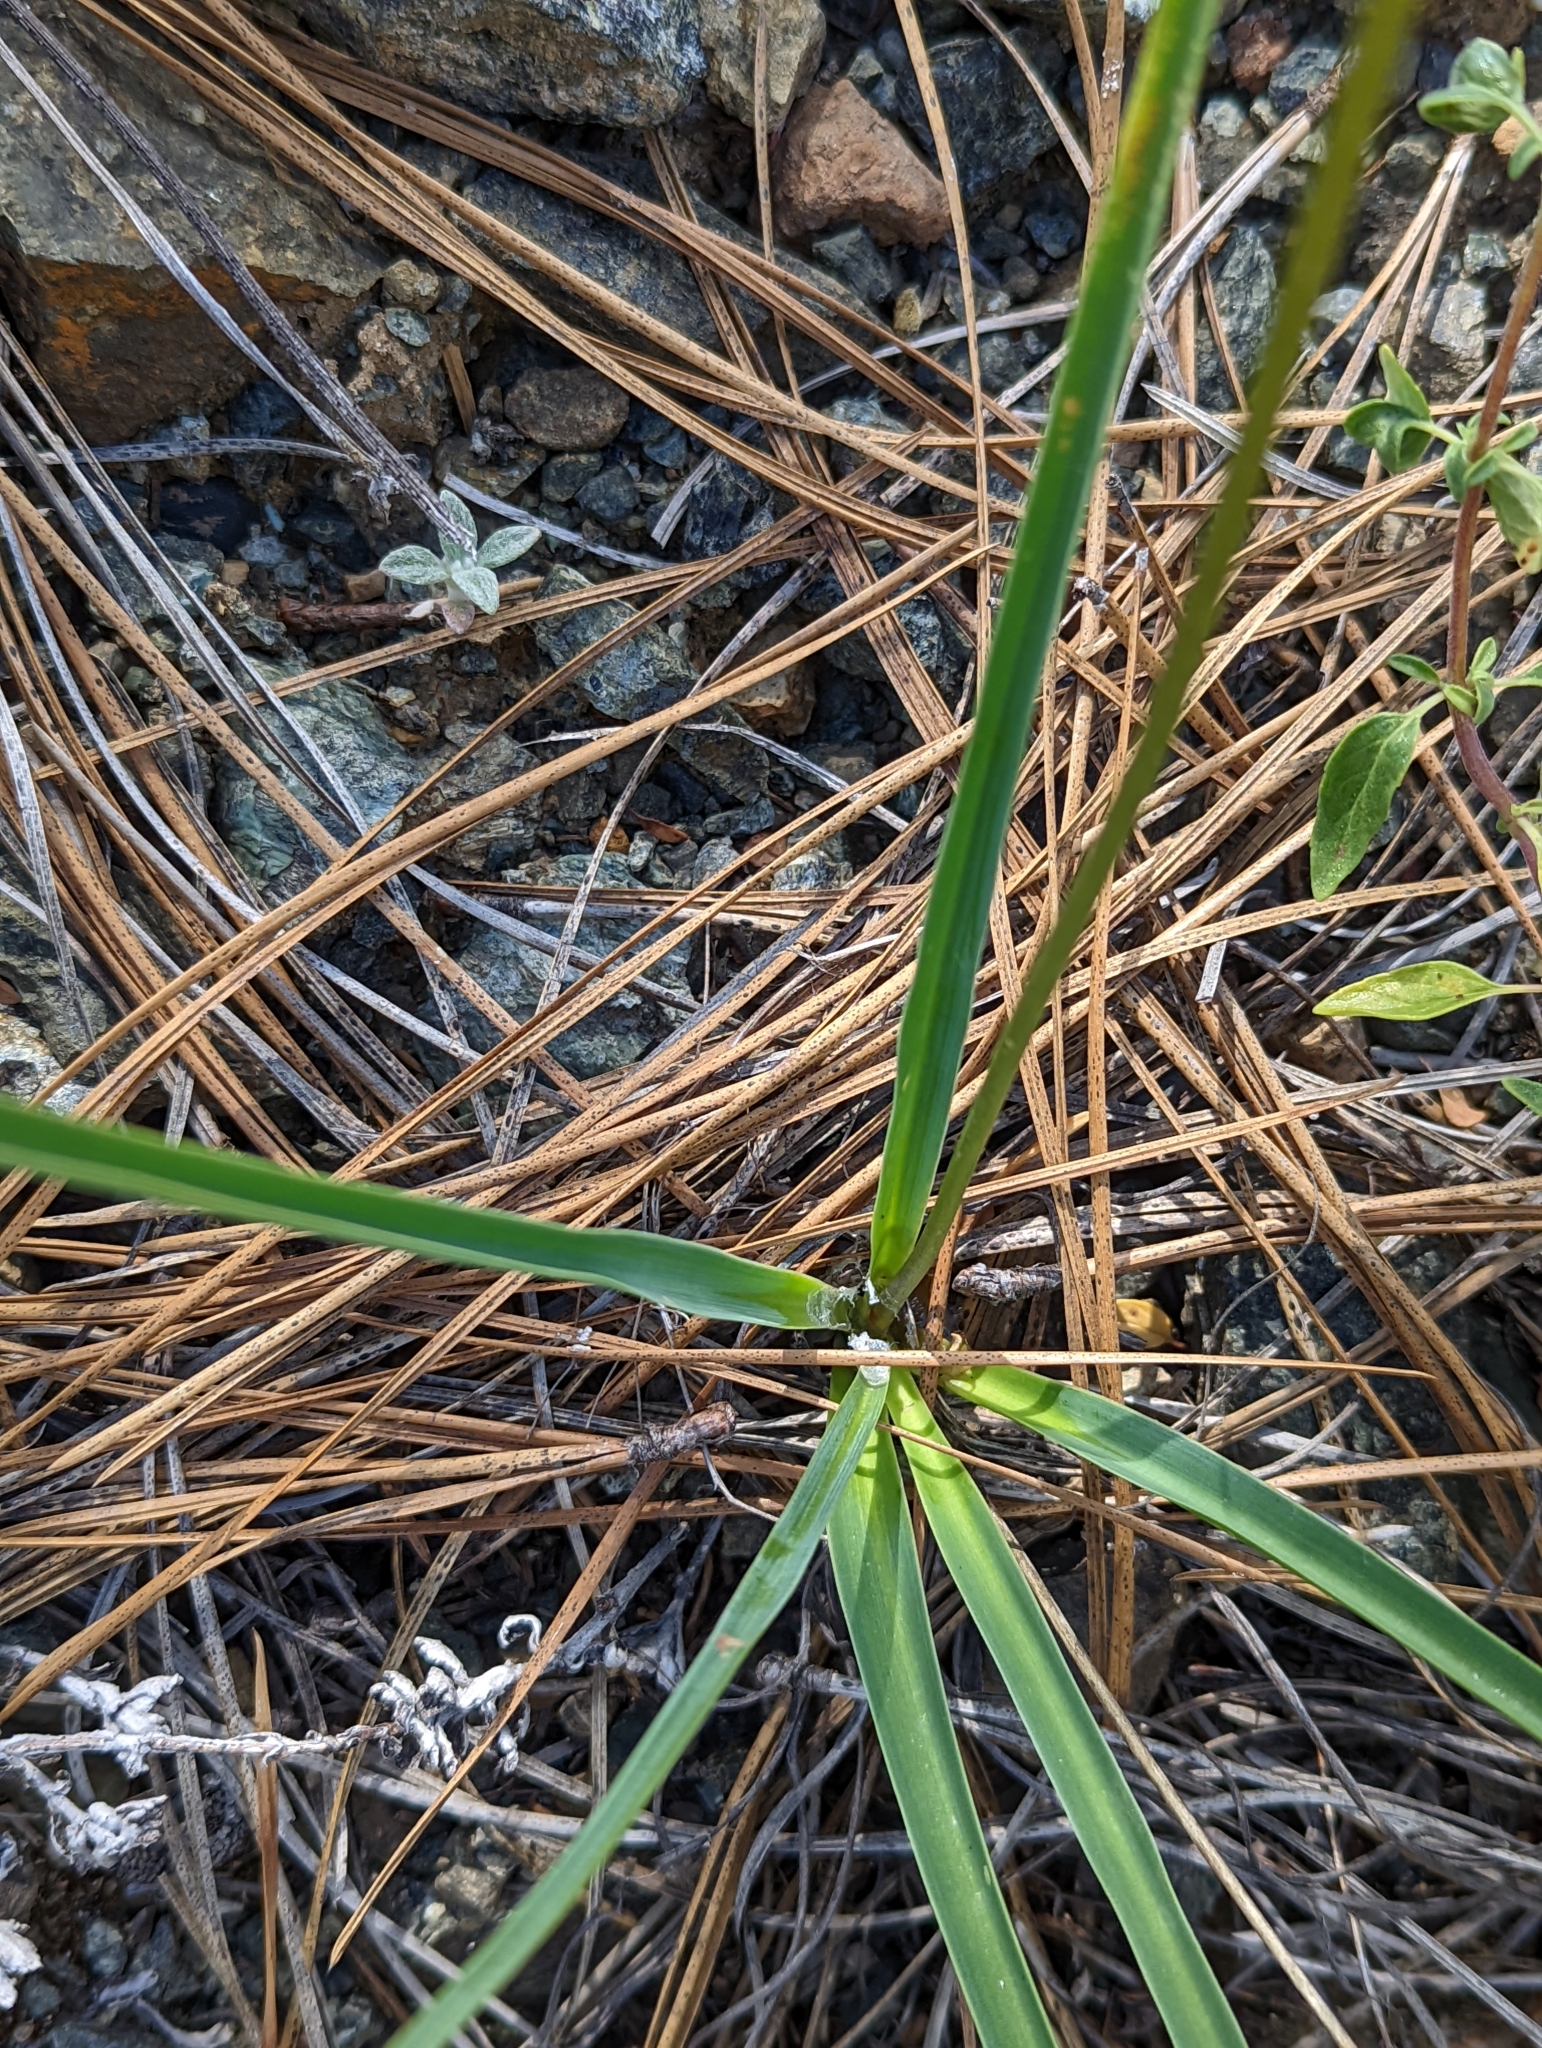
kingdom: Plantae
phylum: Tracheophyta
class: Liliopsida
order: Asparagales
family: Asparagaceae
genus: Hastingsia
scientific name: Hastingsia serpentinicola
